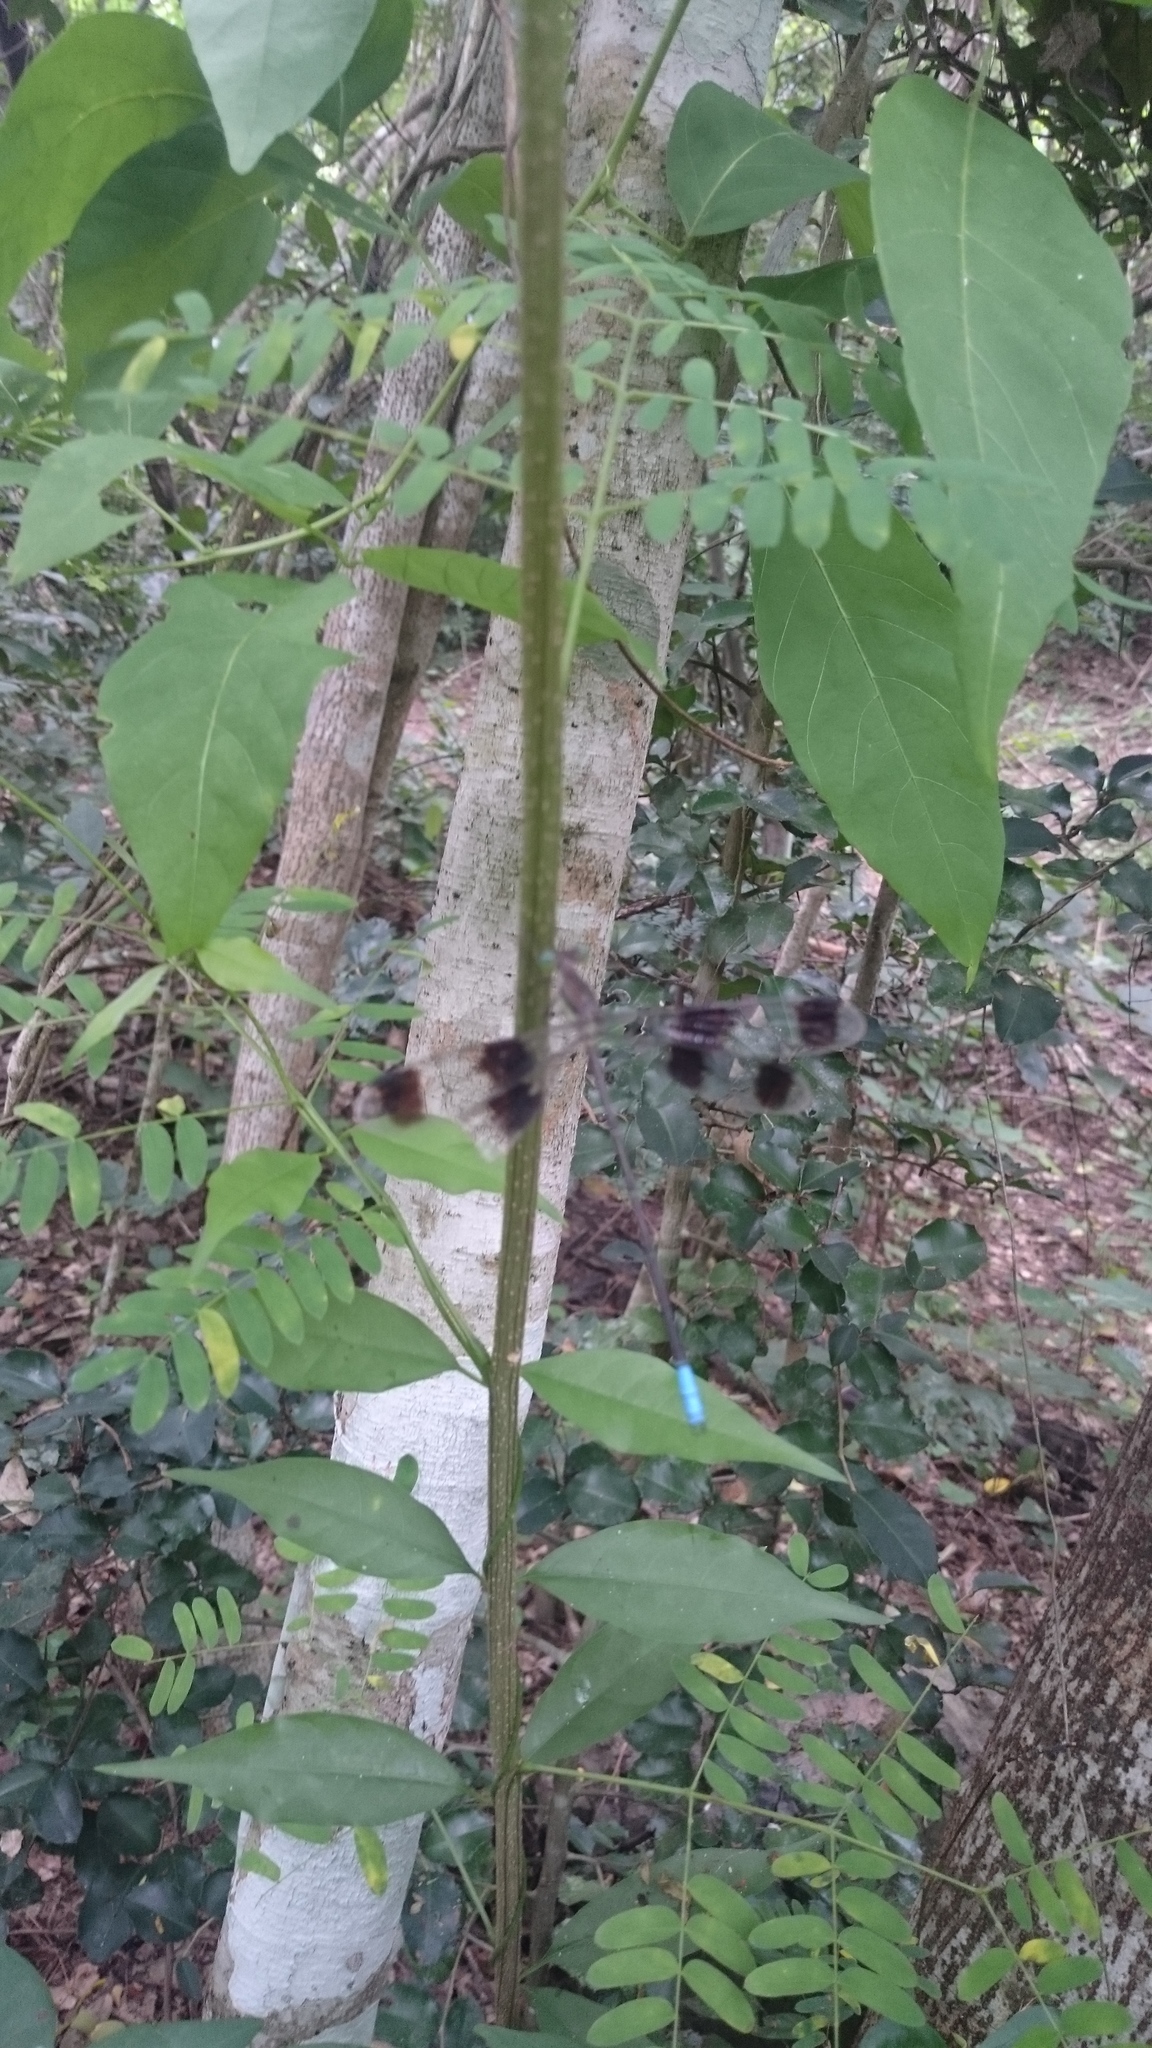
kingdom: Animalia
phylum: Arthropoda
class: Insecta
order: Odonata
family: Lestidae
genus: Orolestes
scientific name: Orolestes octomaculatus
